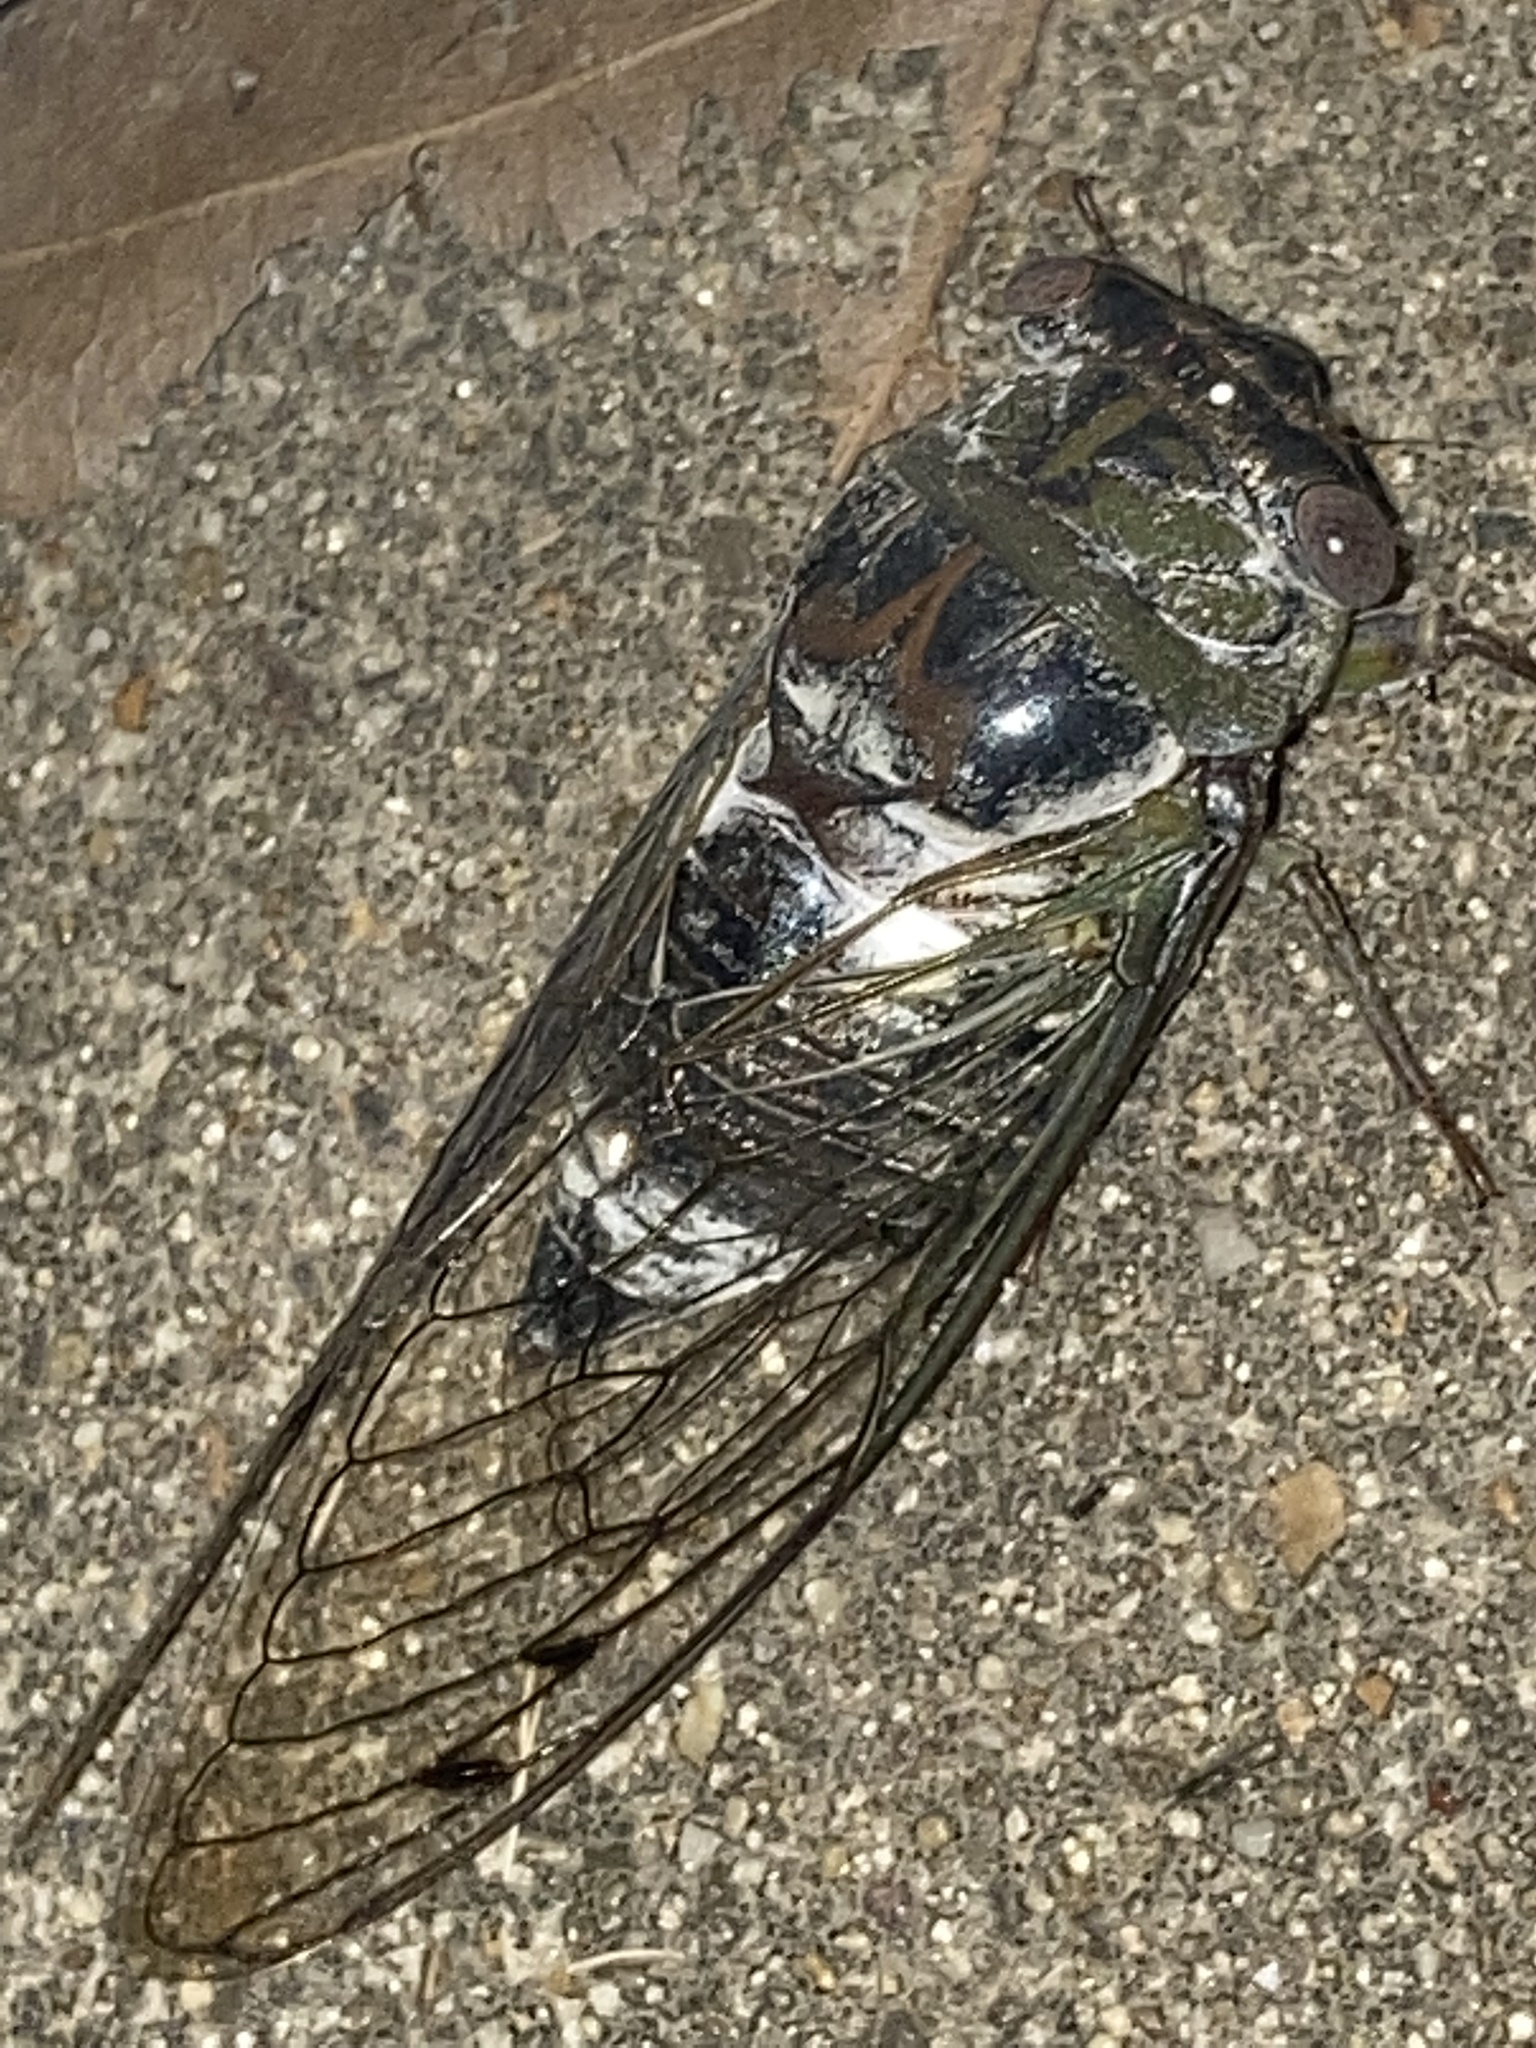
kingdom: Animalia
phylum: Arthropoda
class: Insecta
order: Hemiptera
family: Cicadidae
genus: Diceroprocta
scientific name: Diceroprocta grossa
